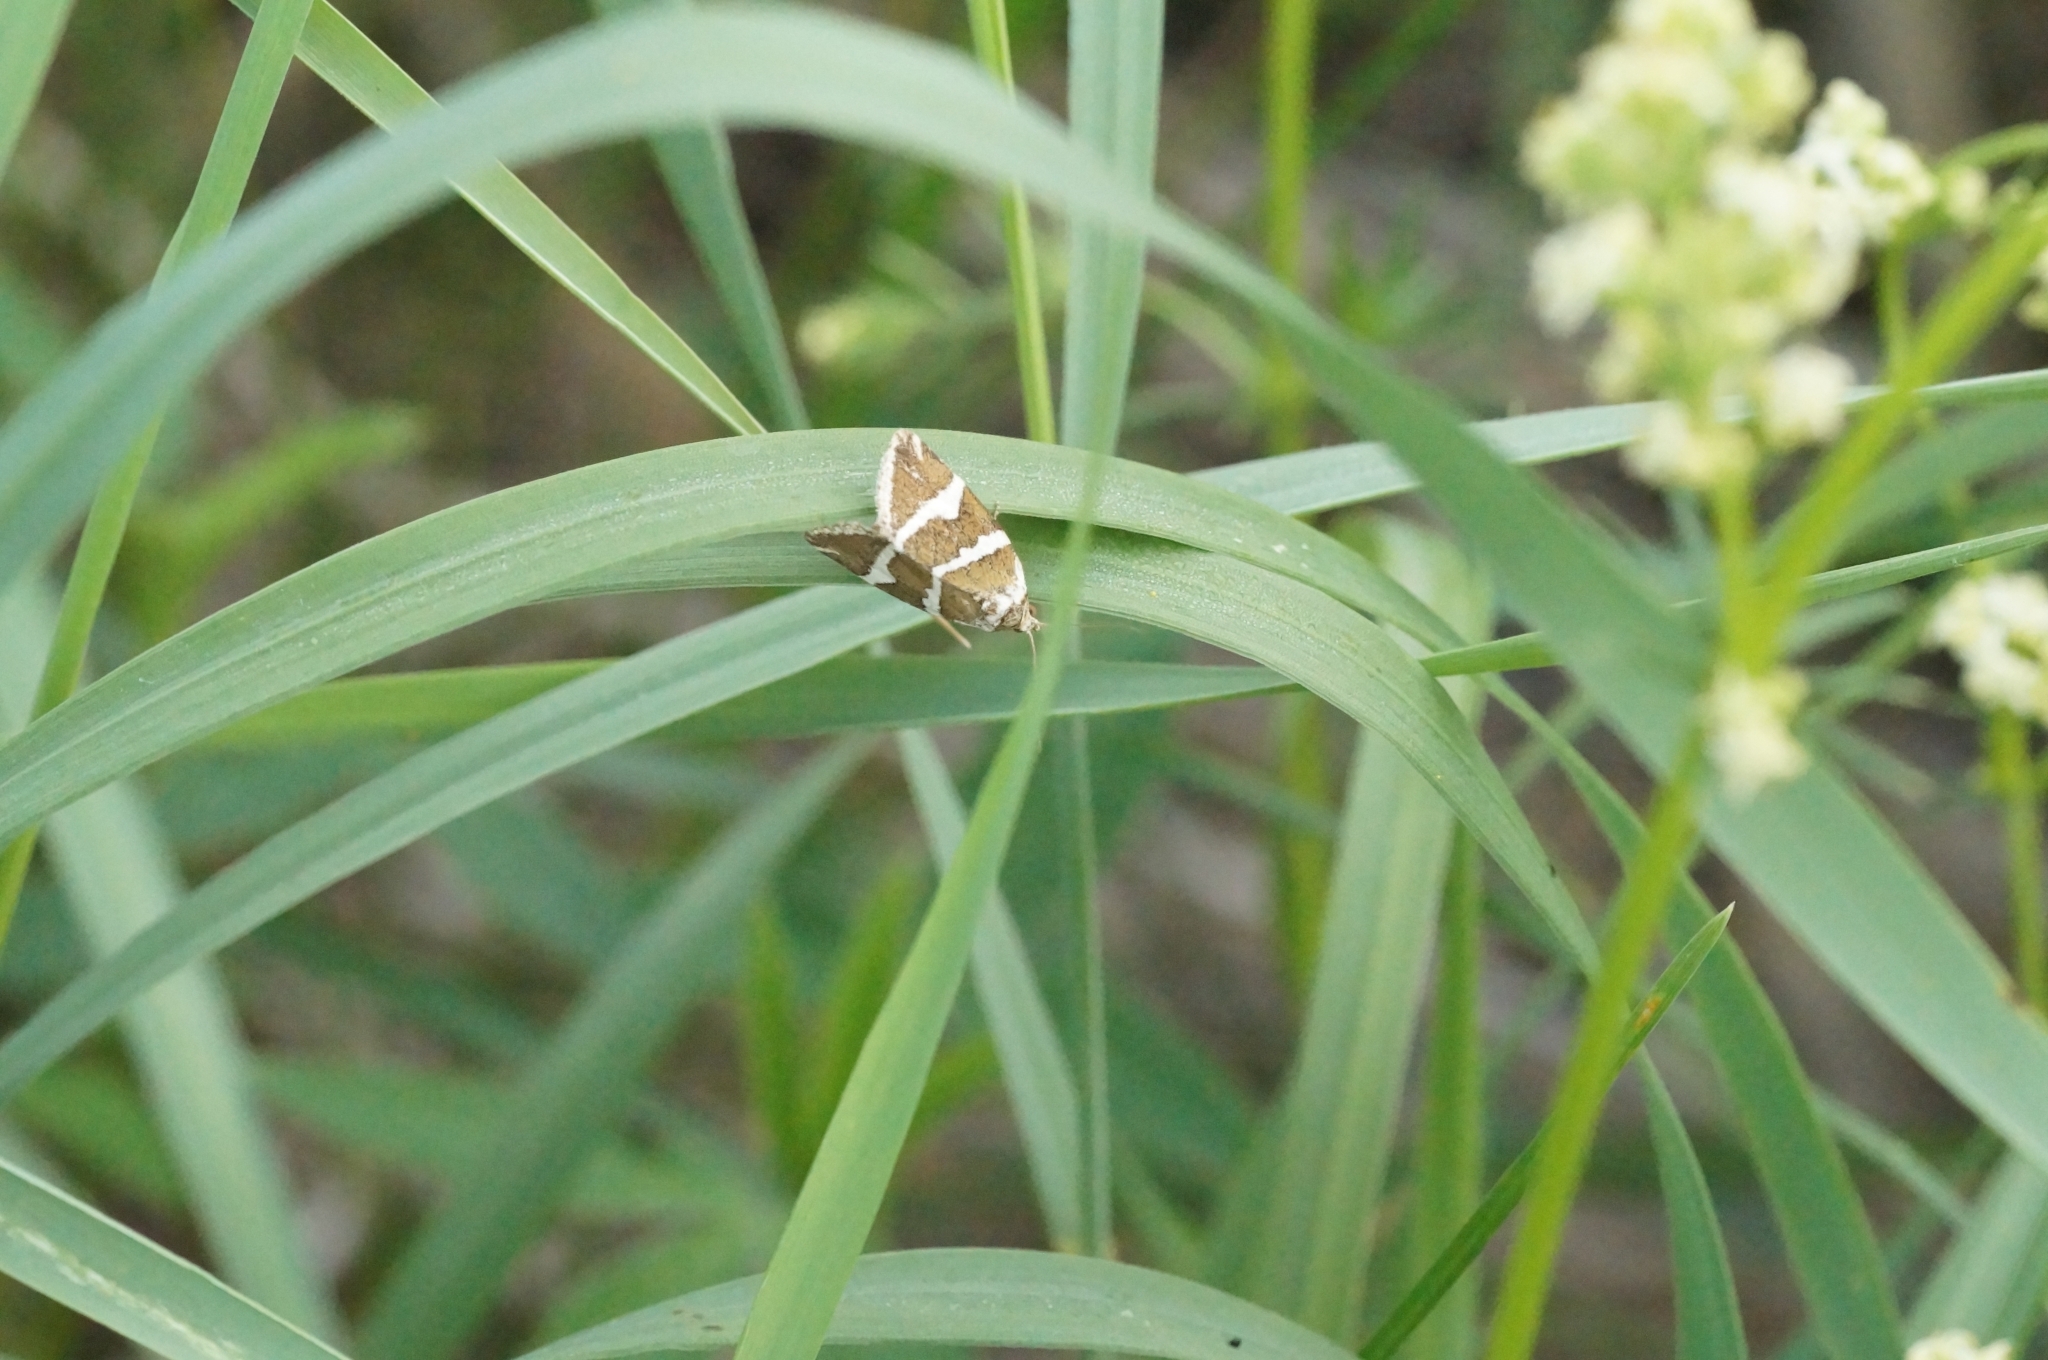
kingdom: Animalia
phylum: Arthropoda
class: Insecta
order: Lepidoptera
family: Noctuidae
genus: Deltote
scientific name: Deltote bankiana
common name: Silver barred
